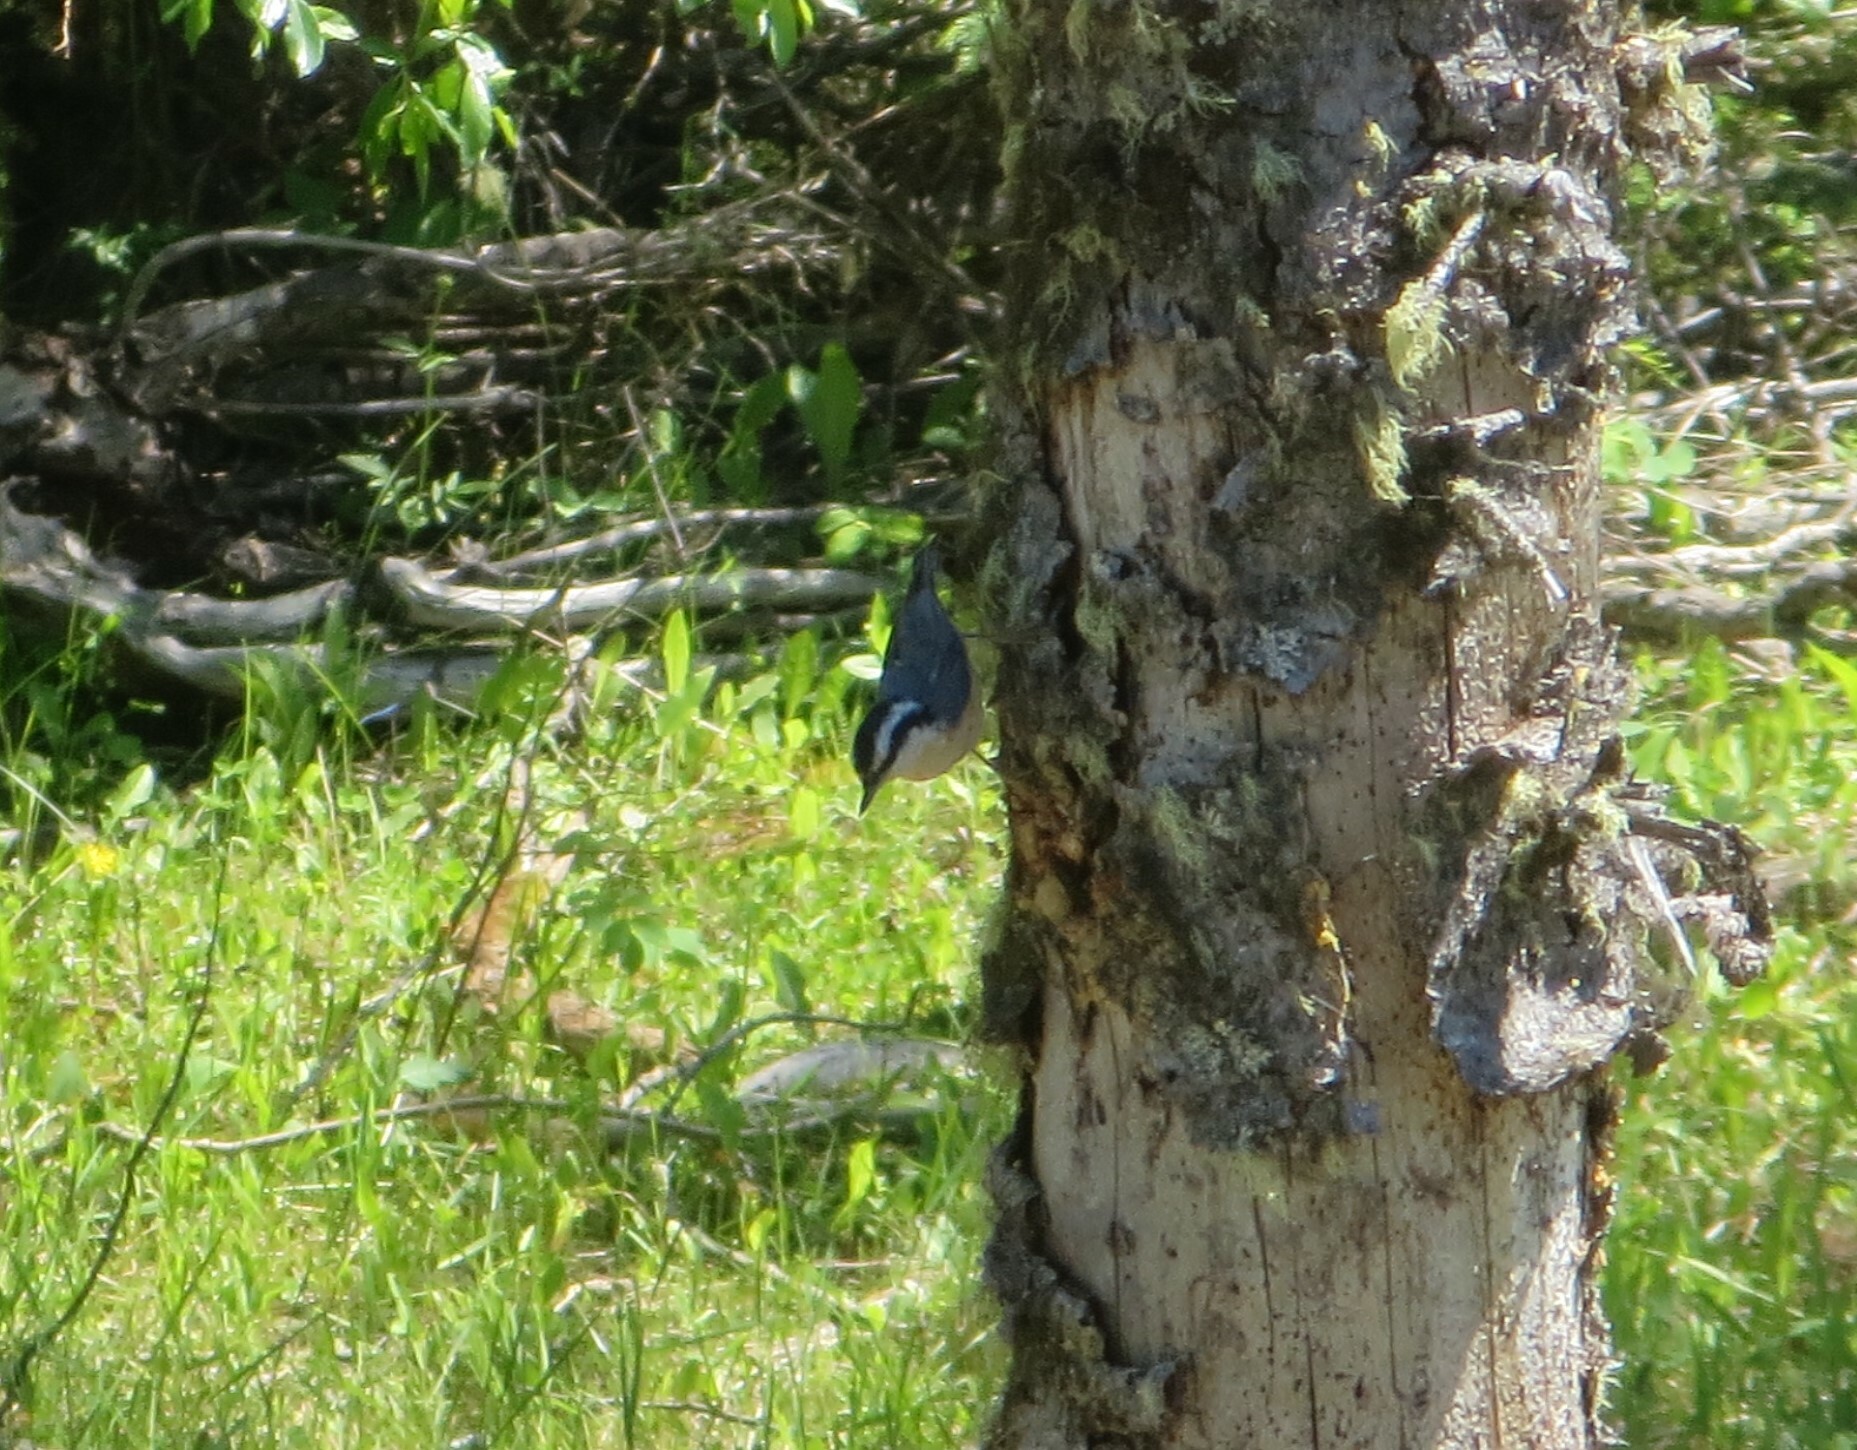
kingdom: Animalia
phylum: Chordata
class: Aves
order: Passeriformes
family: Sittidae
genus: Sitta
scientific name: Sitta canadensis
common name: Red-breasted nuthatch
